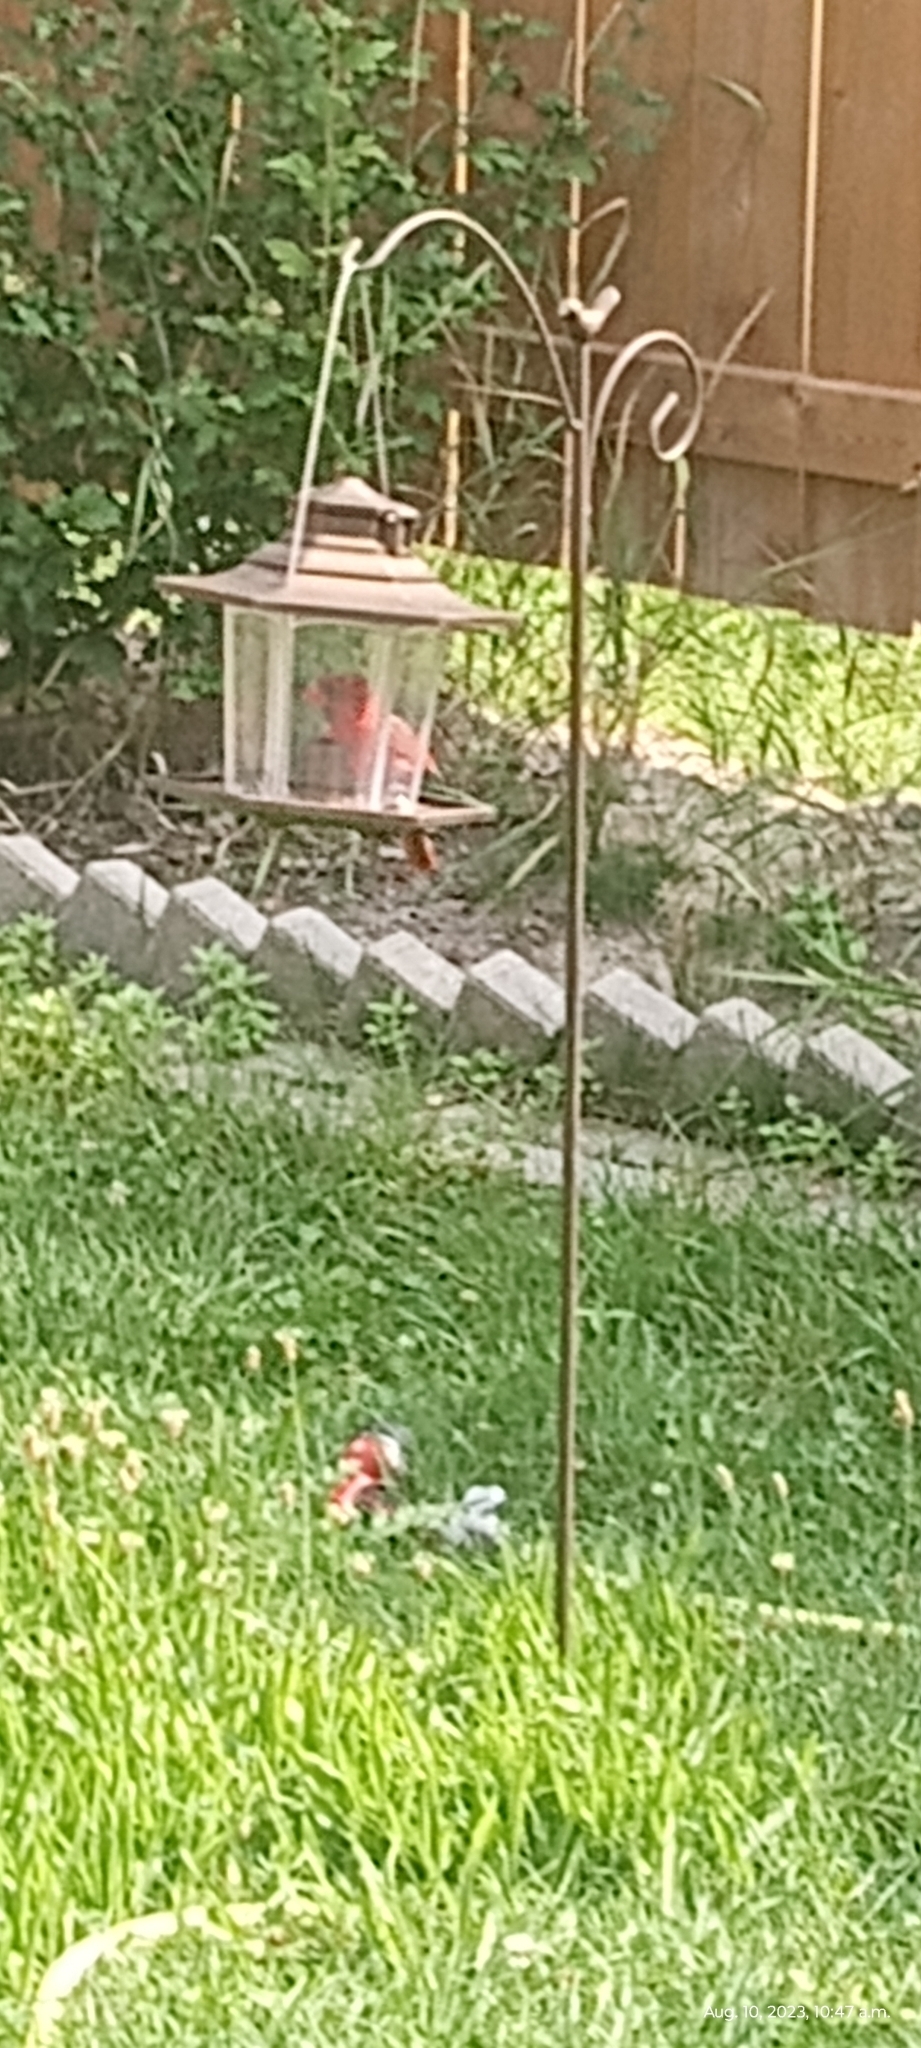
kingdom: Animalia
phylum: Chordata
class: Aves
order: Passeriformes
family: Cardinalidae
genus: Cardinalis
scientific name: Cardinalis cardinalis
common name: Northern cardinal
